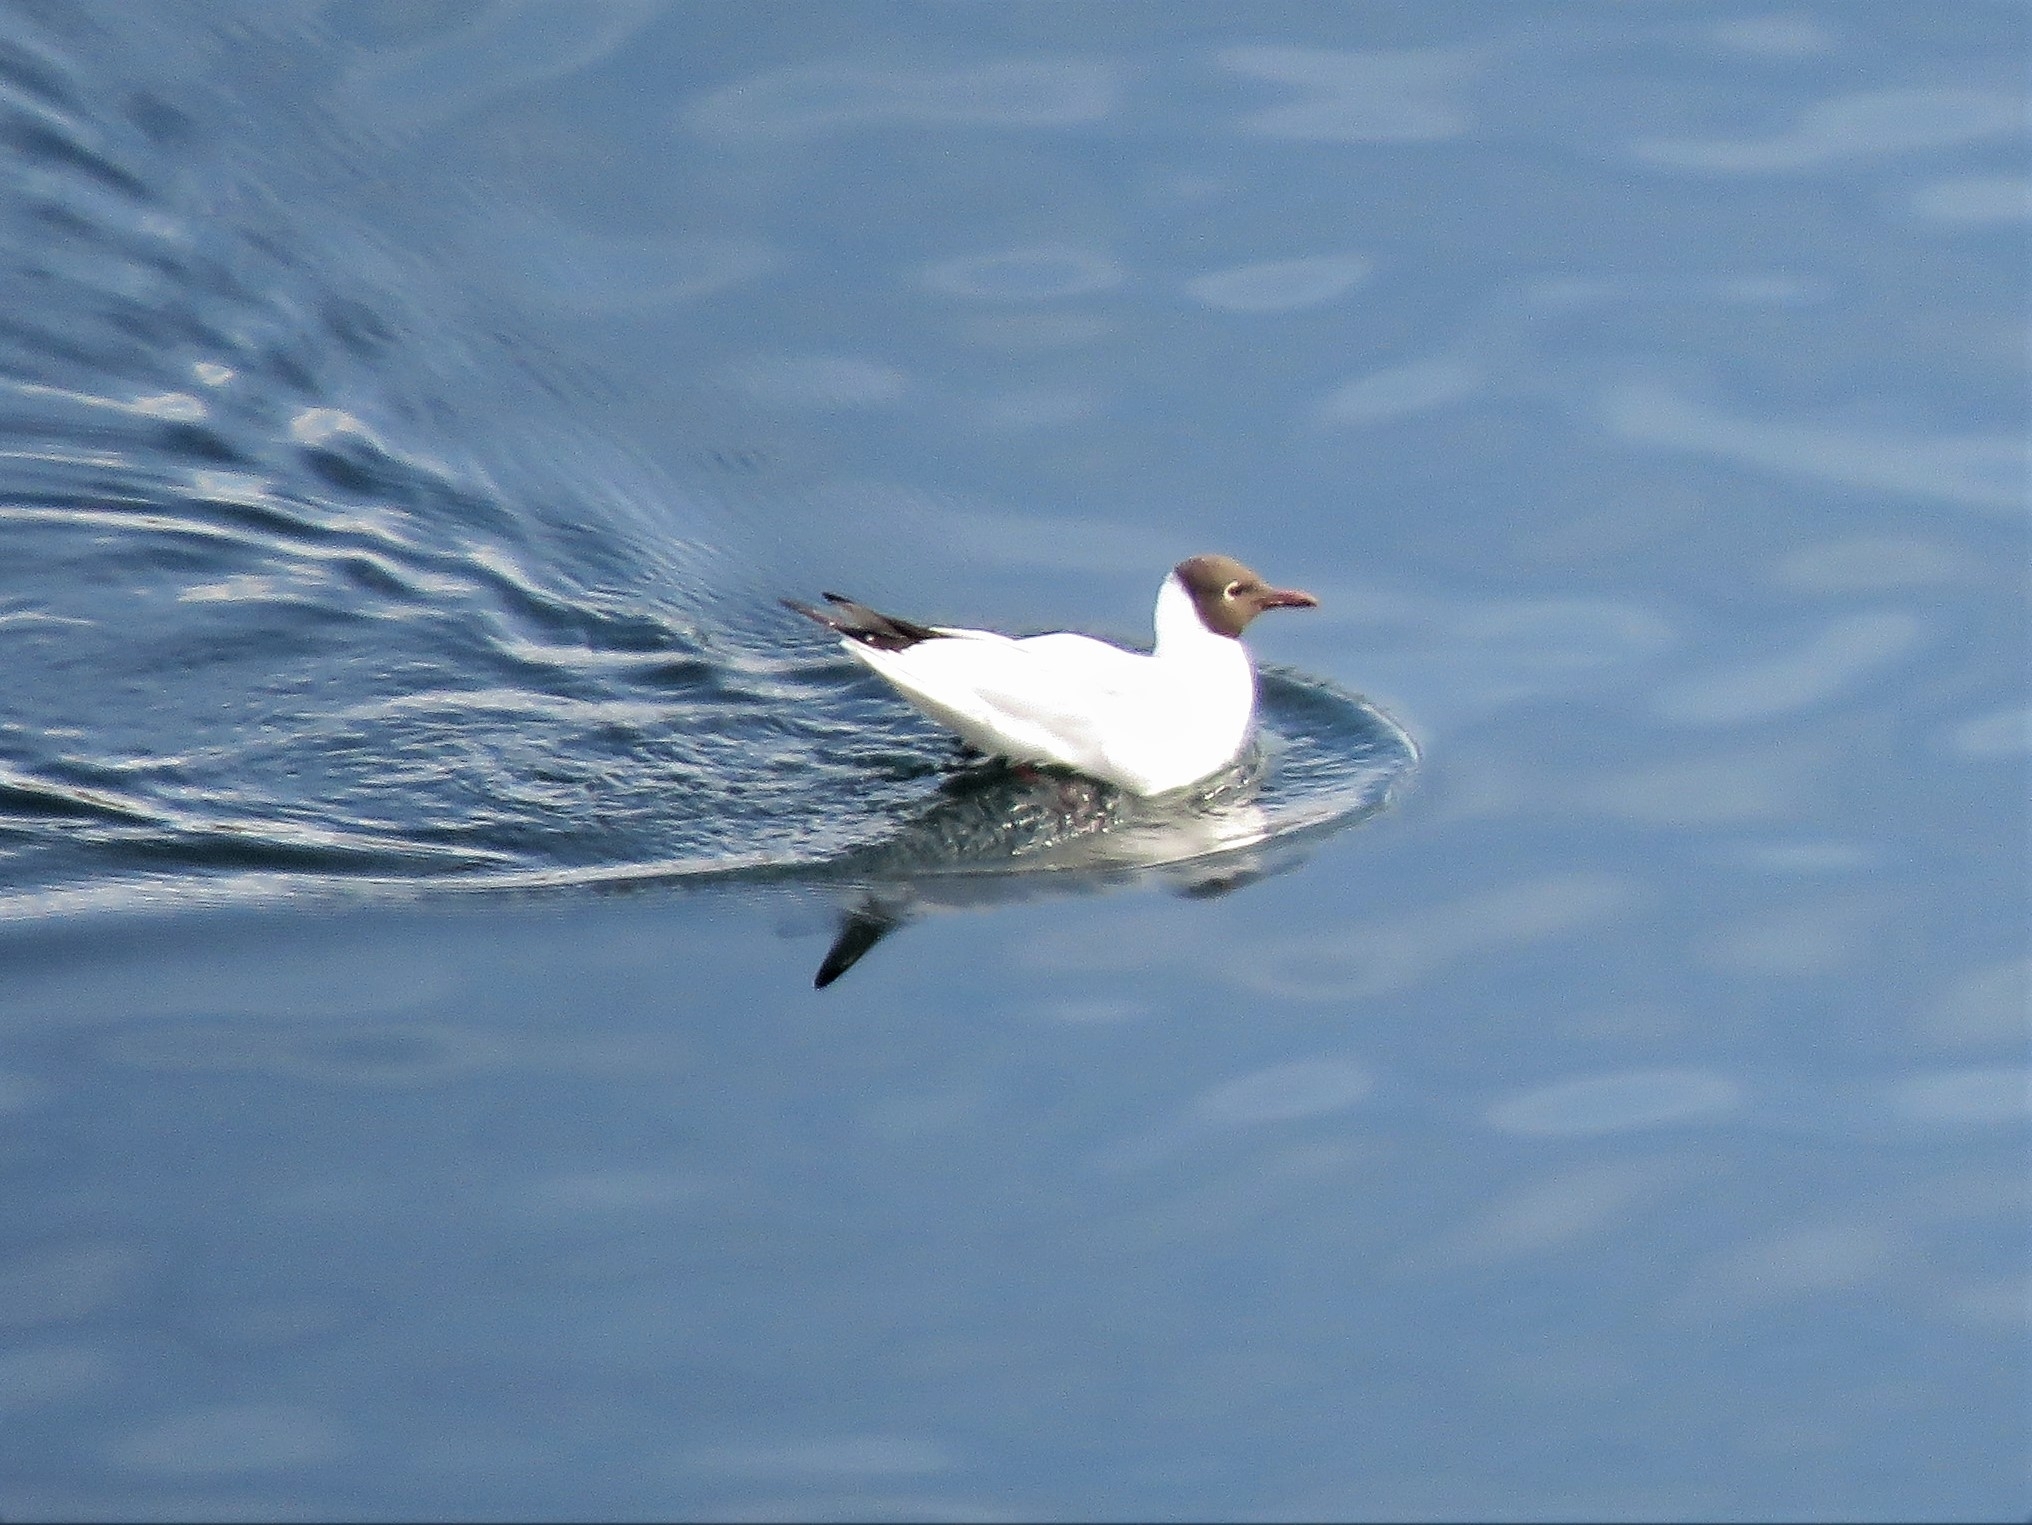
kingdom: Animalia
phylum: Chordata
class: Aves
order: Charadriiformes
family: Laridae
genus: Chroicocephalus
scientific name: Chroicocephalus ridibundus
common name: Black-headed gull
